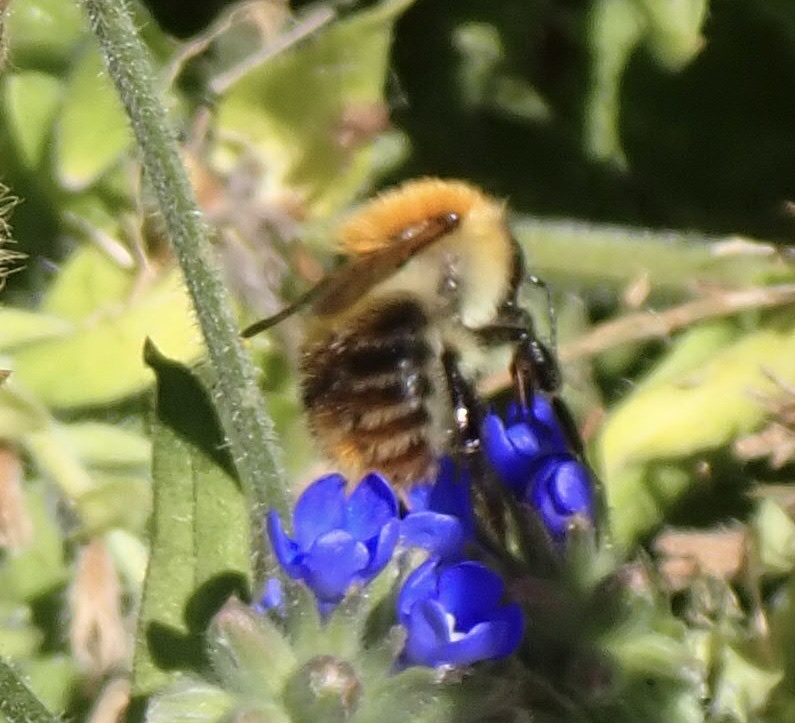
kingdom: Animalia
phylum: Arthropoda
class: Insecta
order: Hymenoptera
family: Apidae
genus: Bombus
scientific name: Bombus pascuorum
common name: Common carder bee
